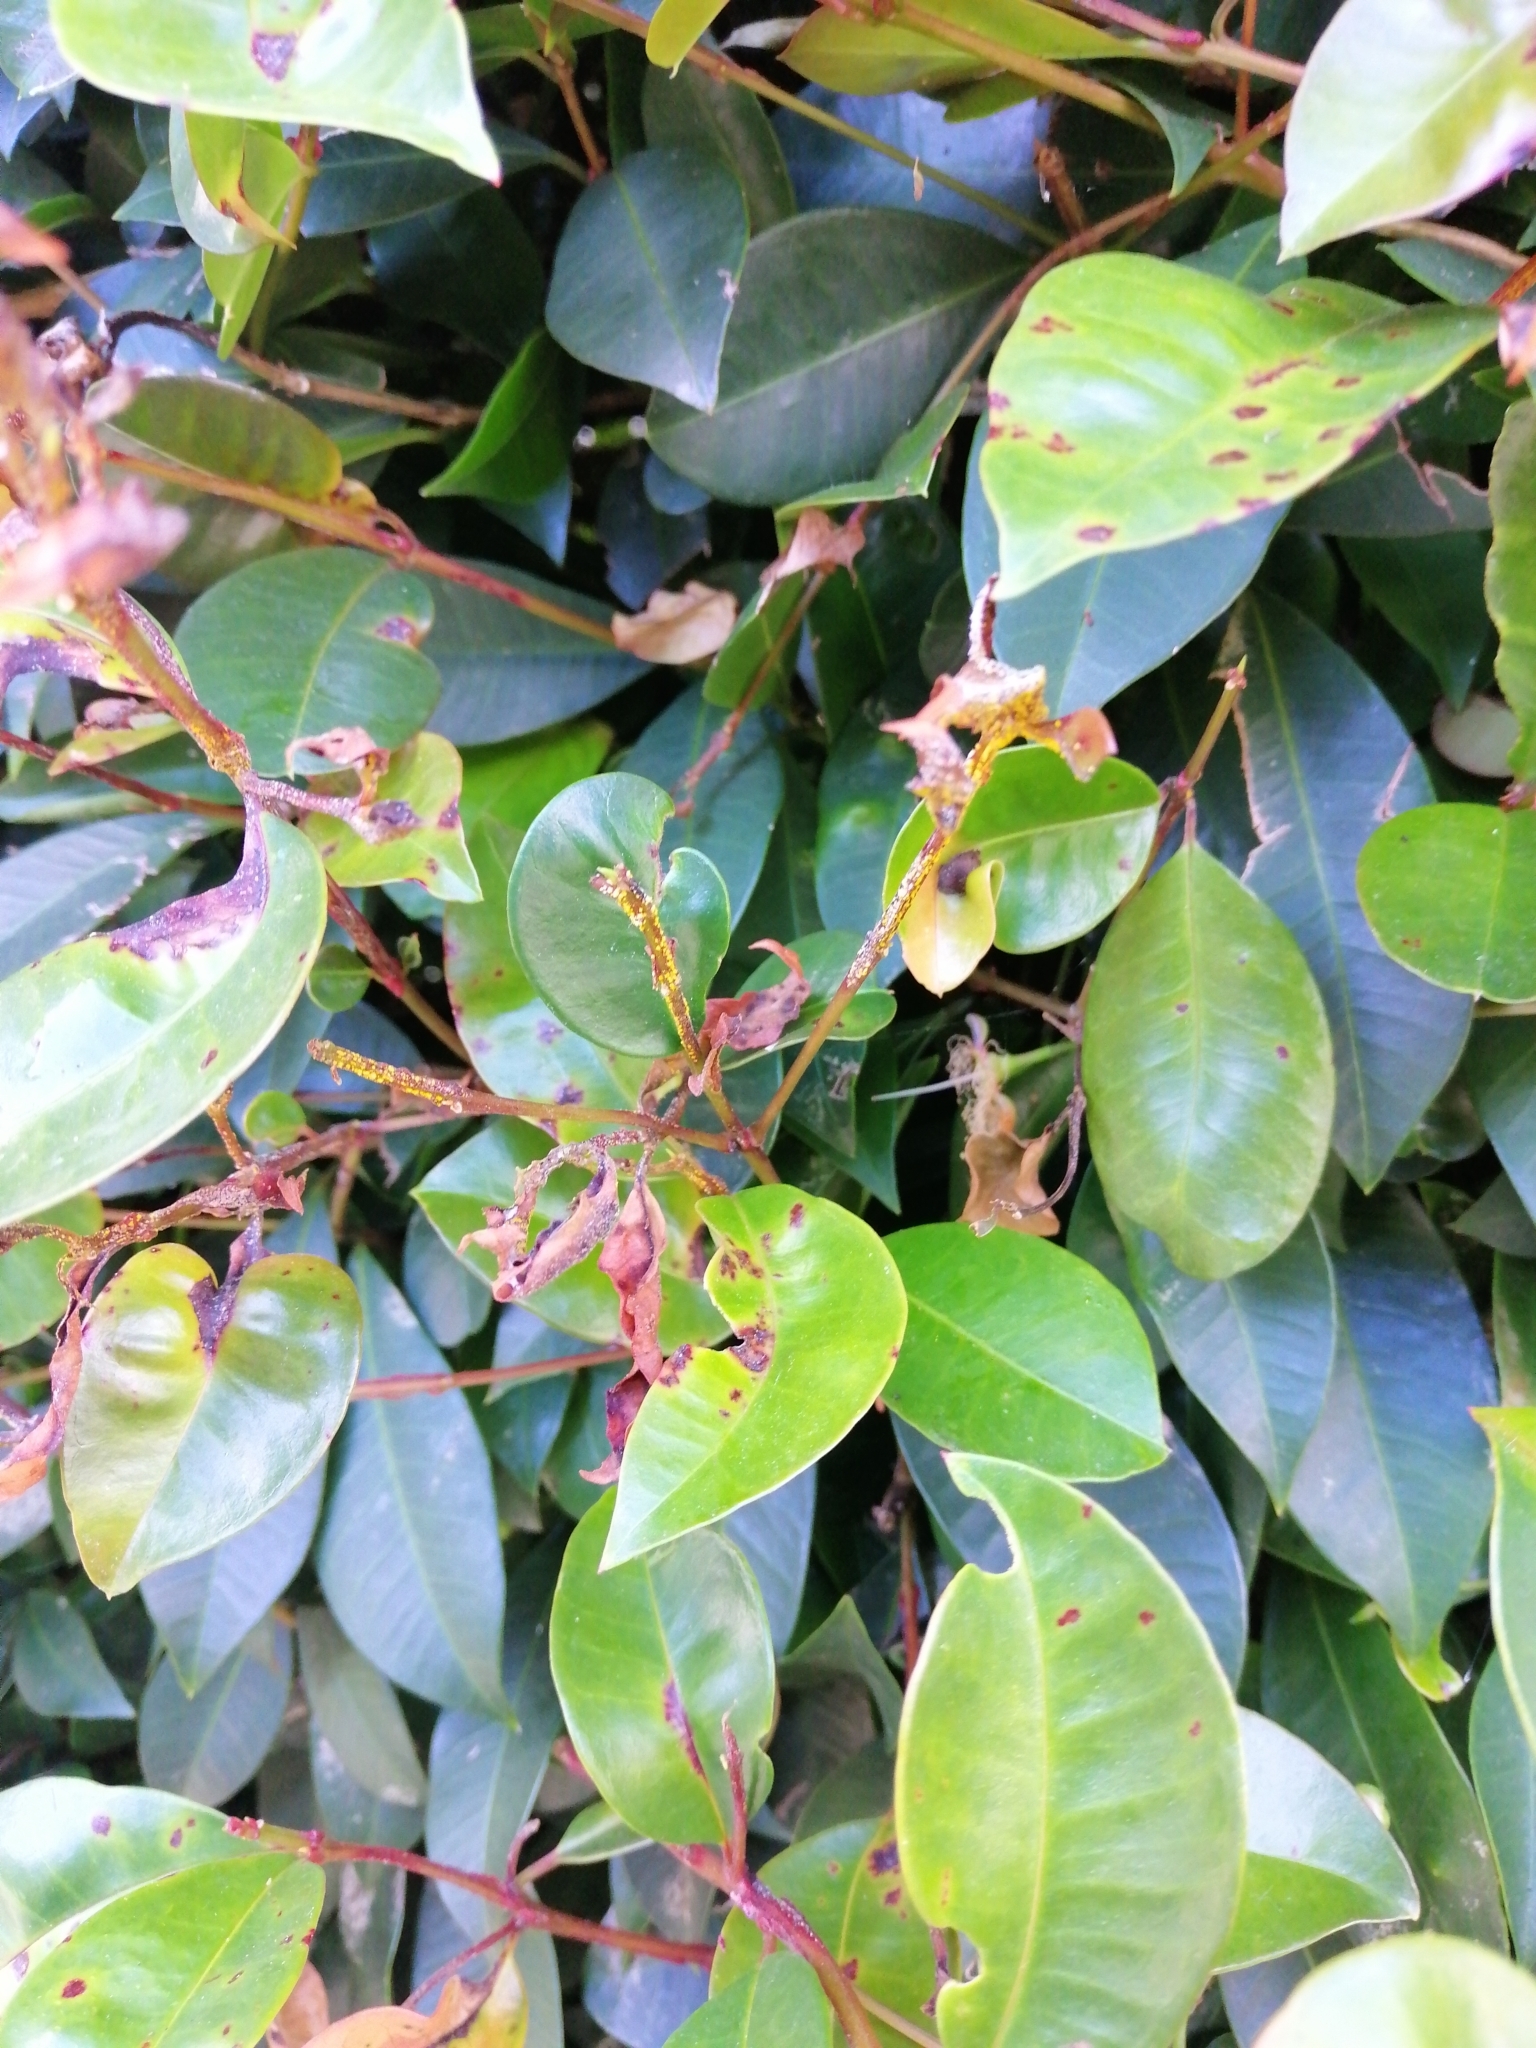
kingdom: Fungi
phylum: Basidiomycota
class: Pucciniomycetes
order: Pucciniales
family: Sphaerophragmiaceae
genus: Austropuccinia
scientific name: Austropuccinia psidii
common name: Myrtle rust
